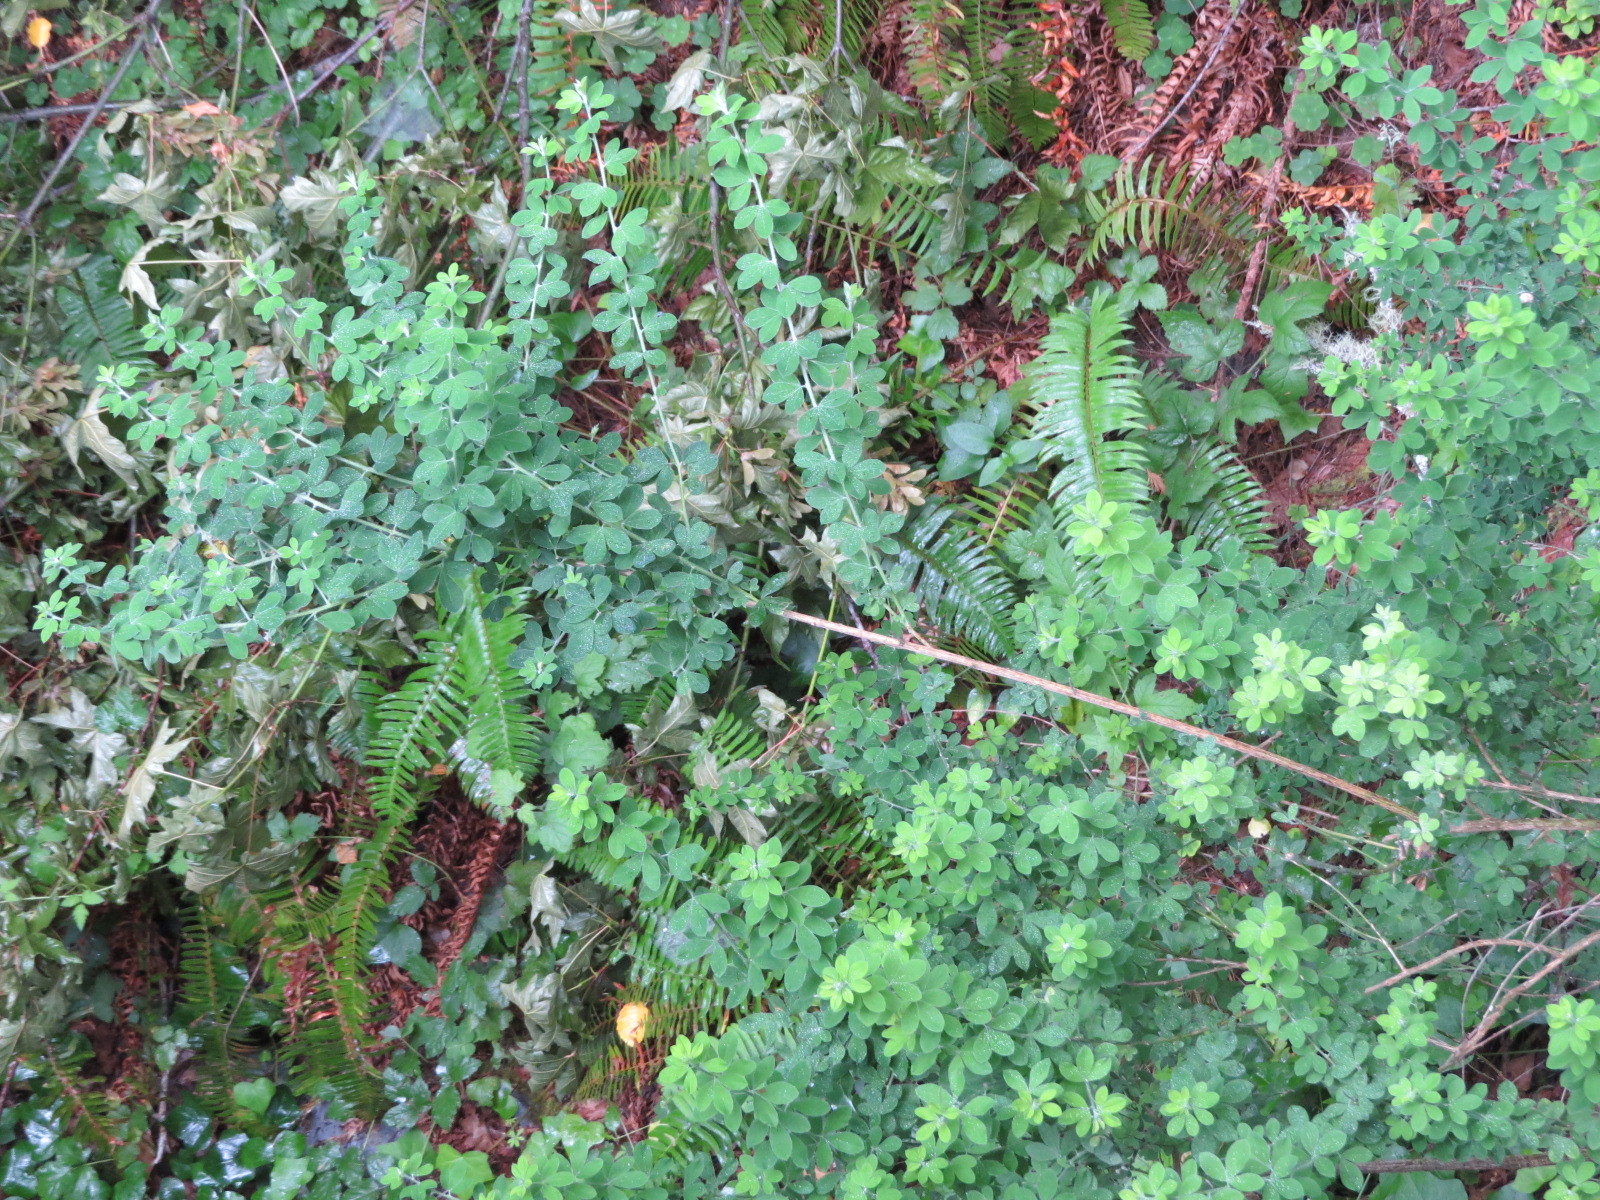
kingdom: Plantae
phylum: Tracheophyta
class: Magnoliopsida
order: Fabales
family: Fabaceae
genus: Genista
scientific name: Genista monspessulana
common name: Montpellier broom
